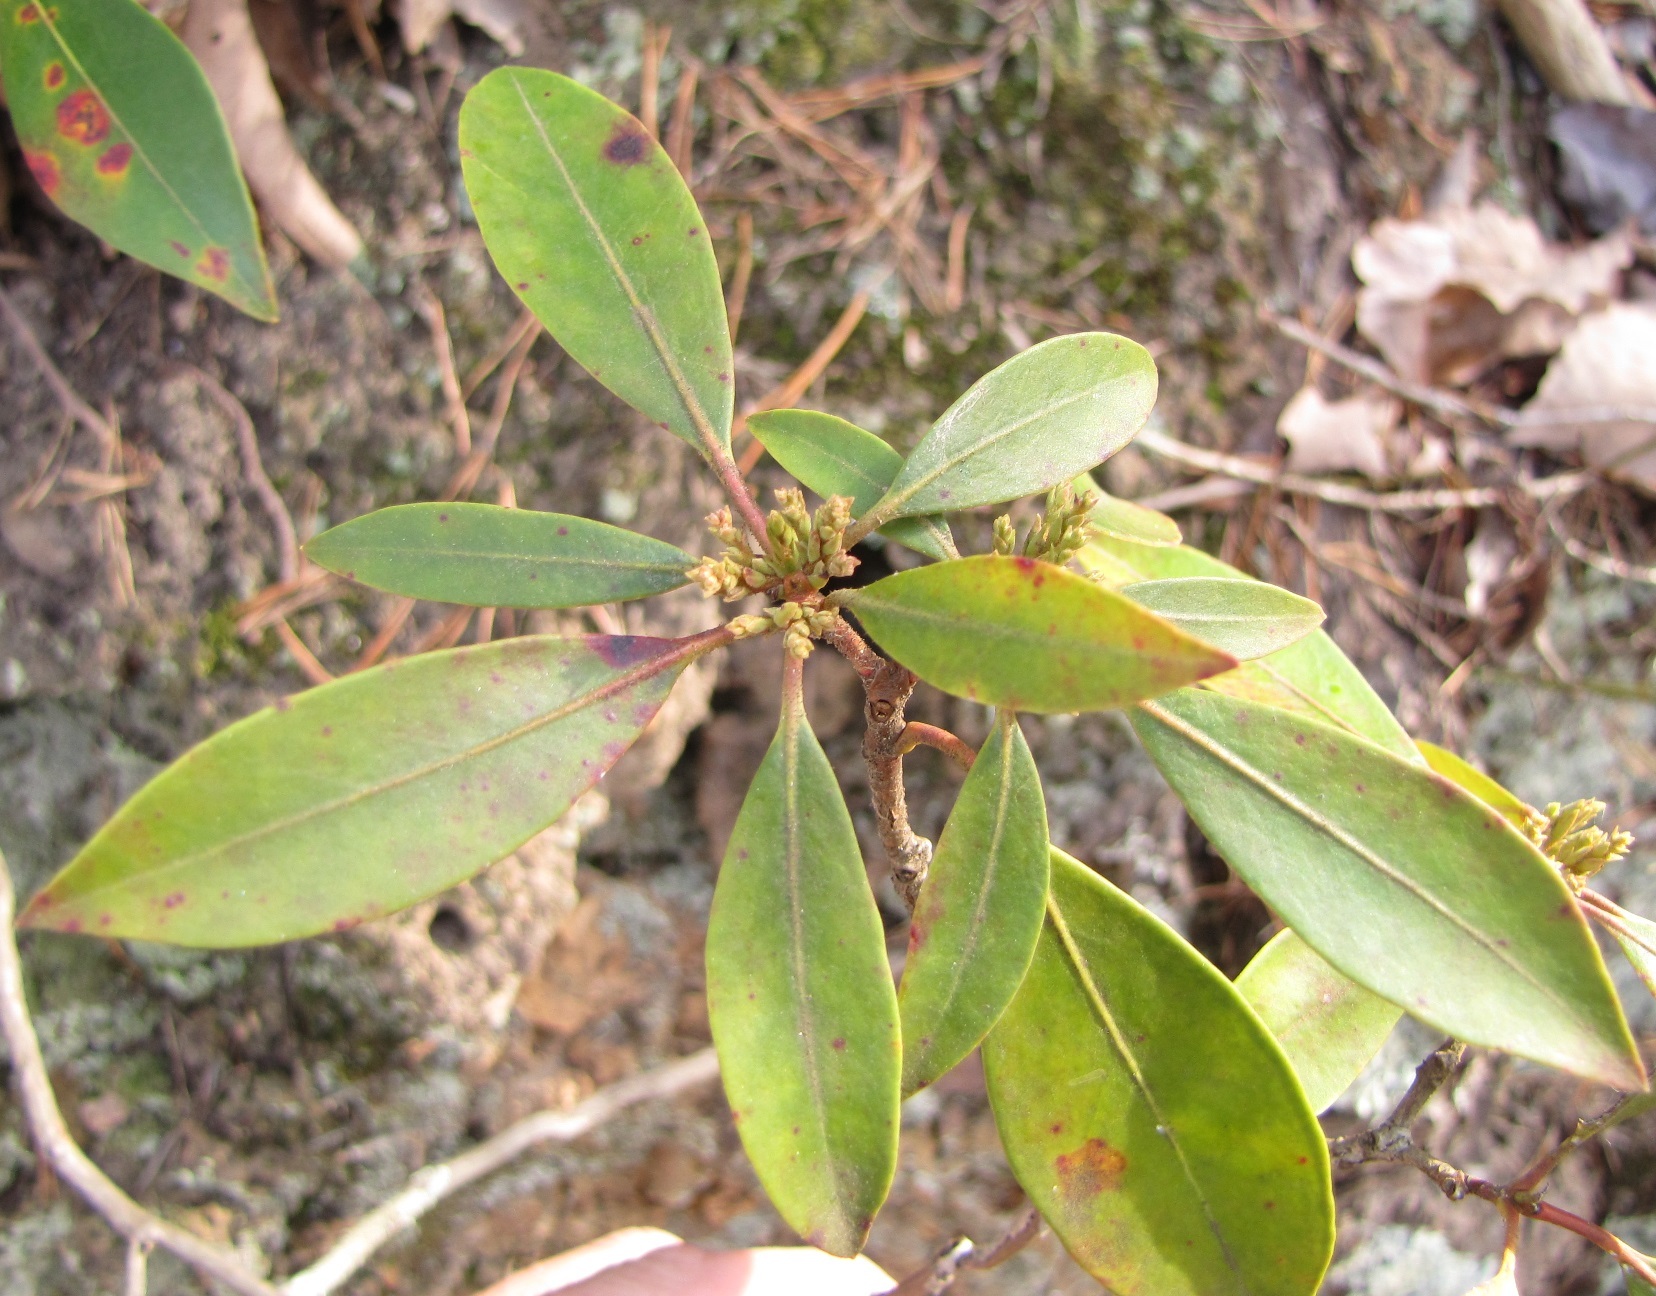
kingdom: Plantae
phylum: Tracheophyta
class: Magnoliopsida
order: Ericales
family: Ericaceae
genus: Kalmia
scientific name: Kalmia latifolia
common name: Mountain-laurel
